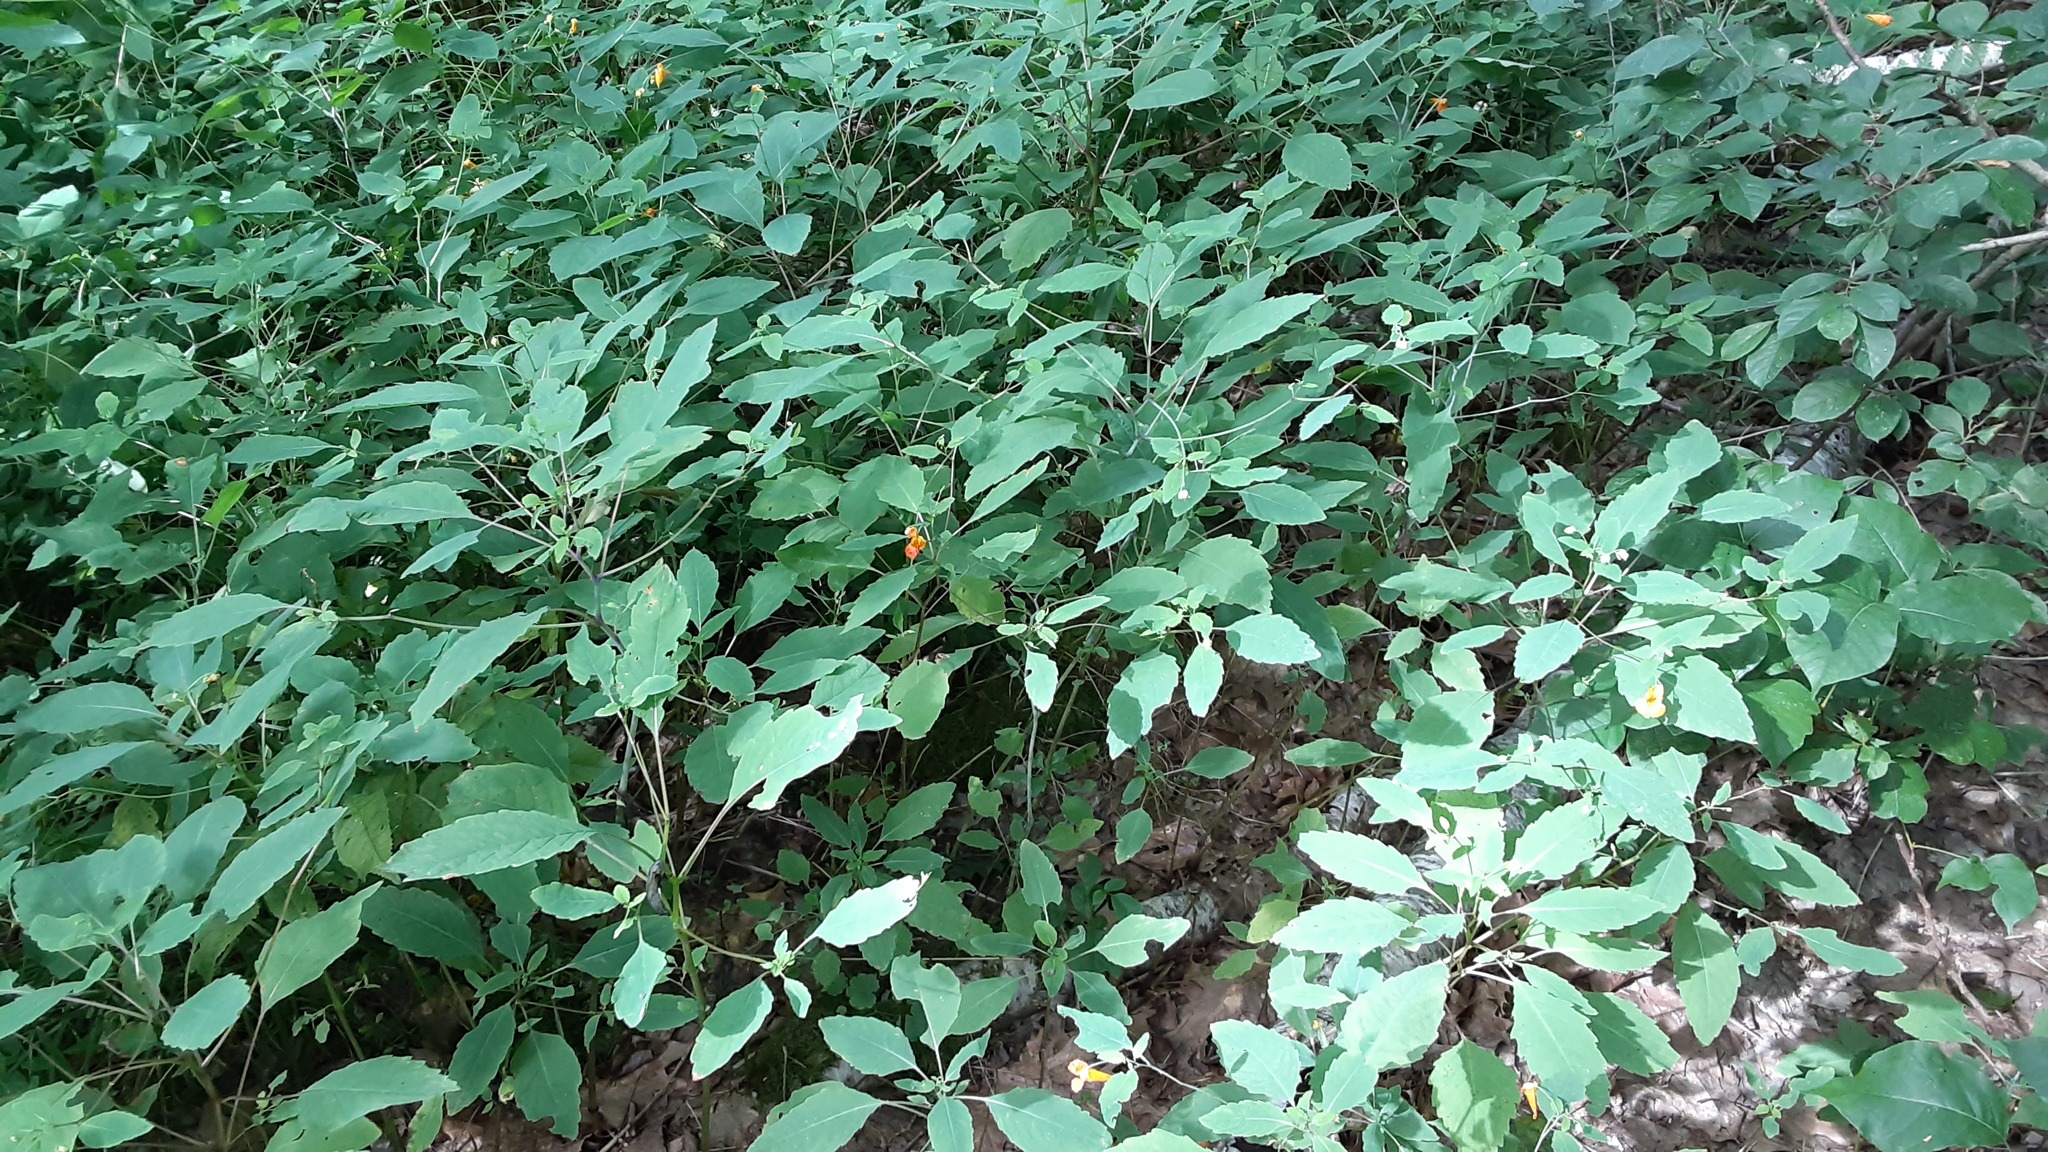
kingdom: Plantae
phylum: Tracheophyta
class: Magnoliopsida
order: Ericales
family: Balsaminaceae
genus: Impatiens
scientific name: Impatiens capensis
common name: Orange balsam
